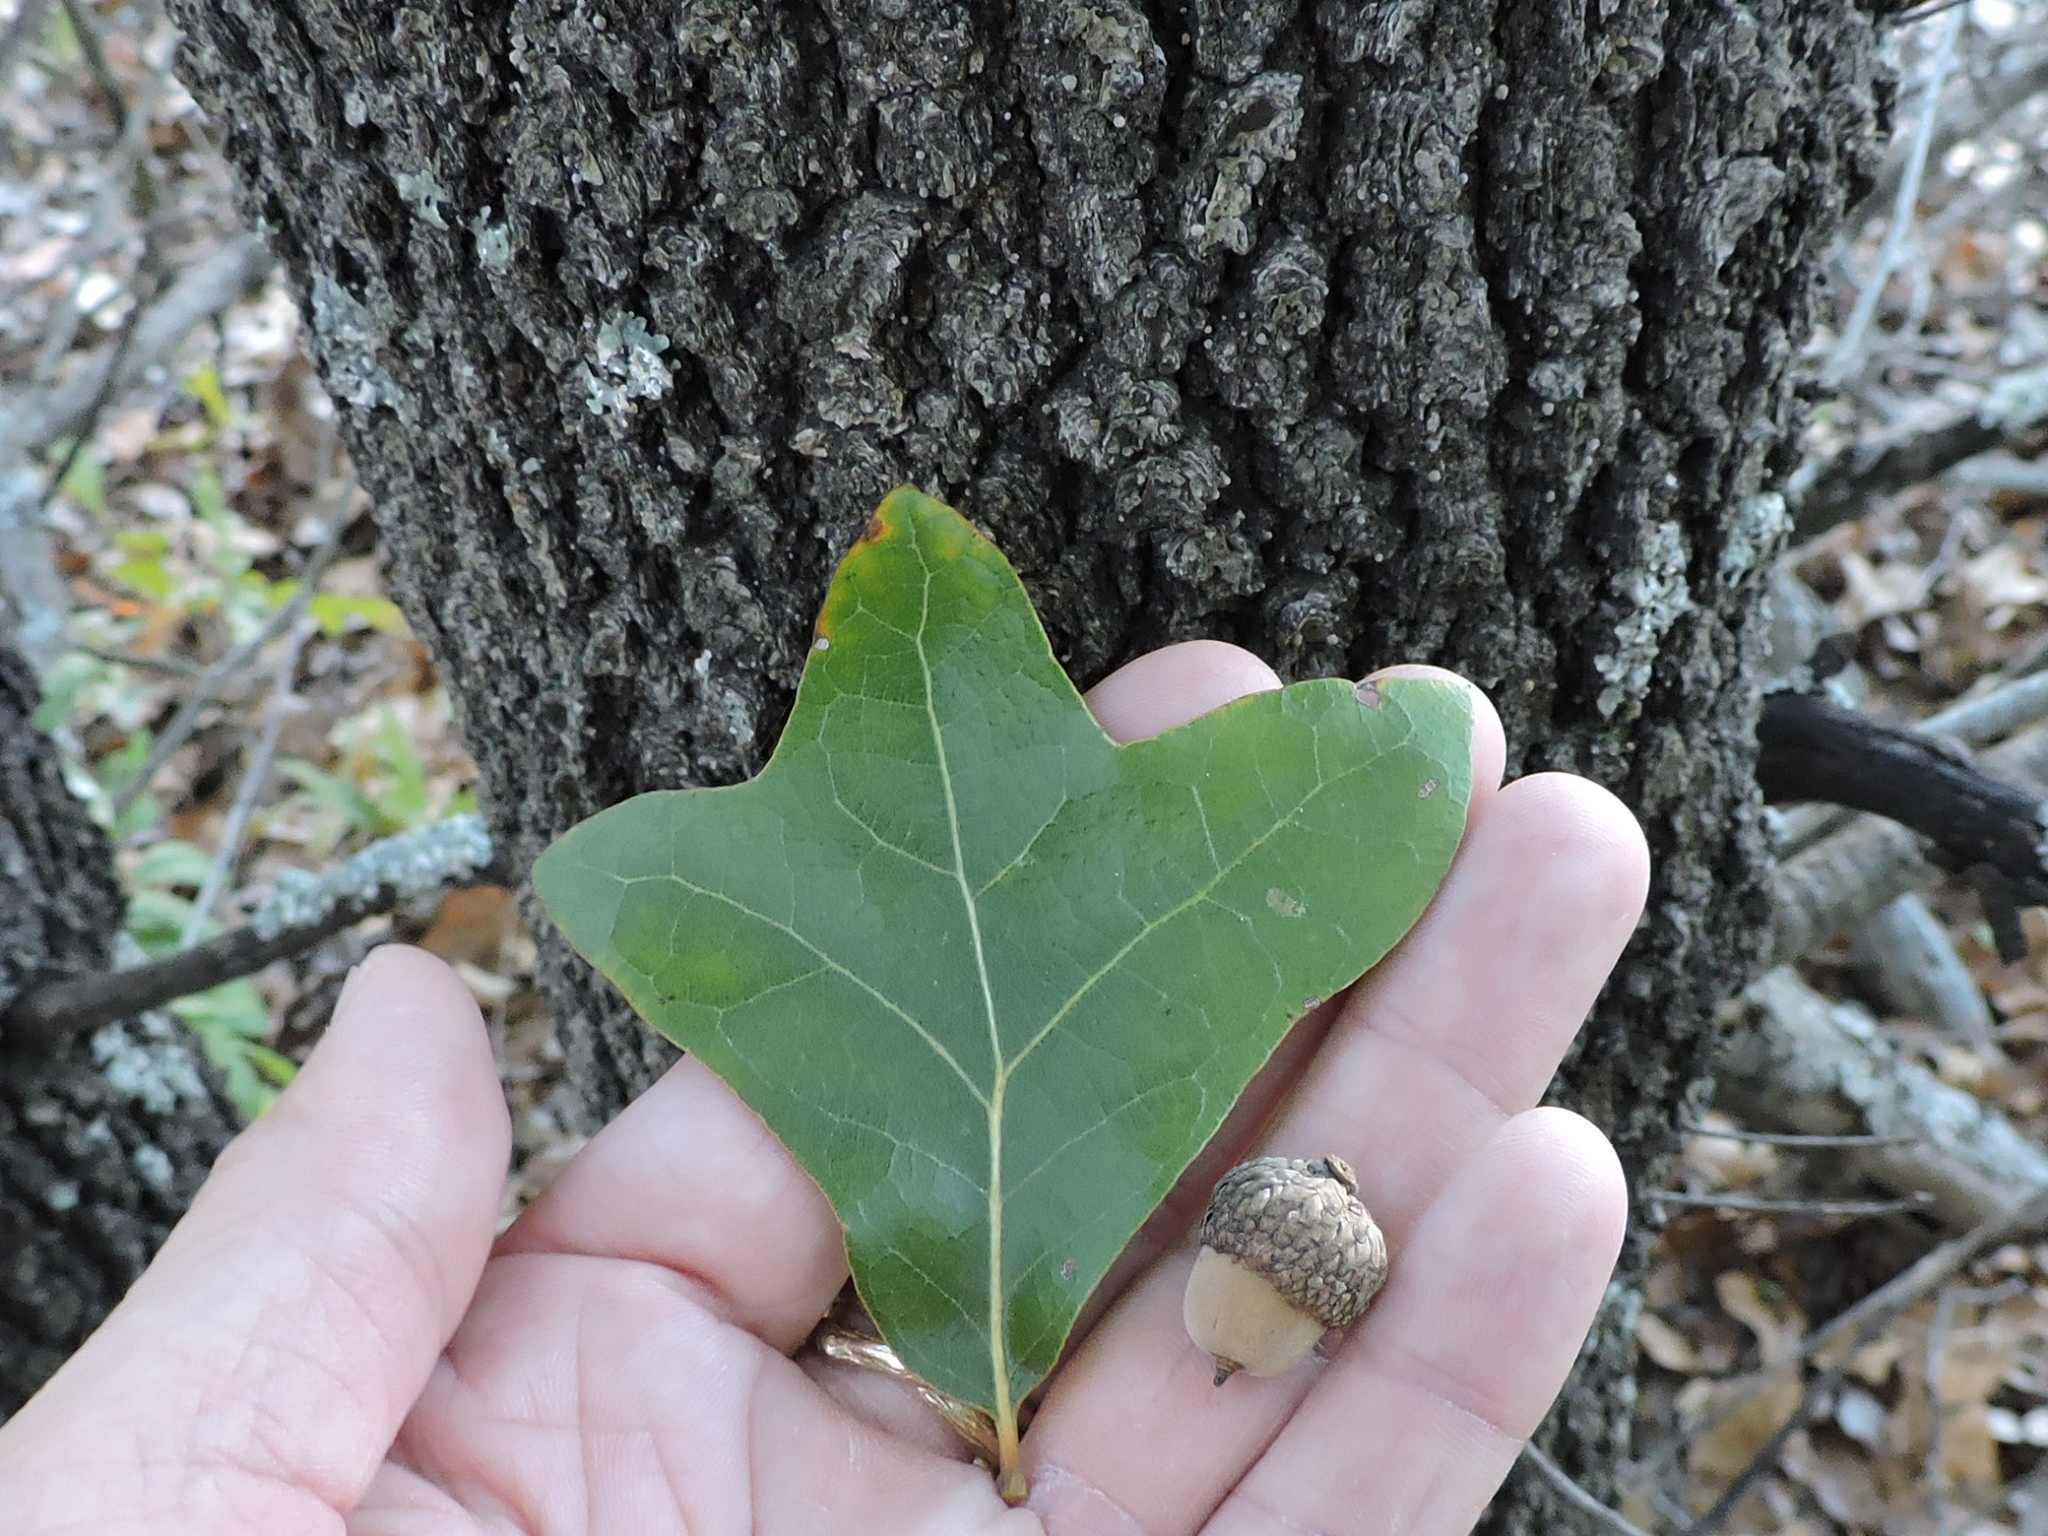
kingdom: Plantae
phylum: Tracheophyta
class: Magnoliopsida
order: Fagales
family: Fagaceae
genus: Quercus
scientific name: Quercus marilandica
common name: Blackjack oak
